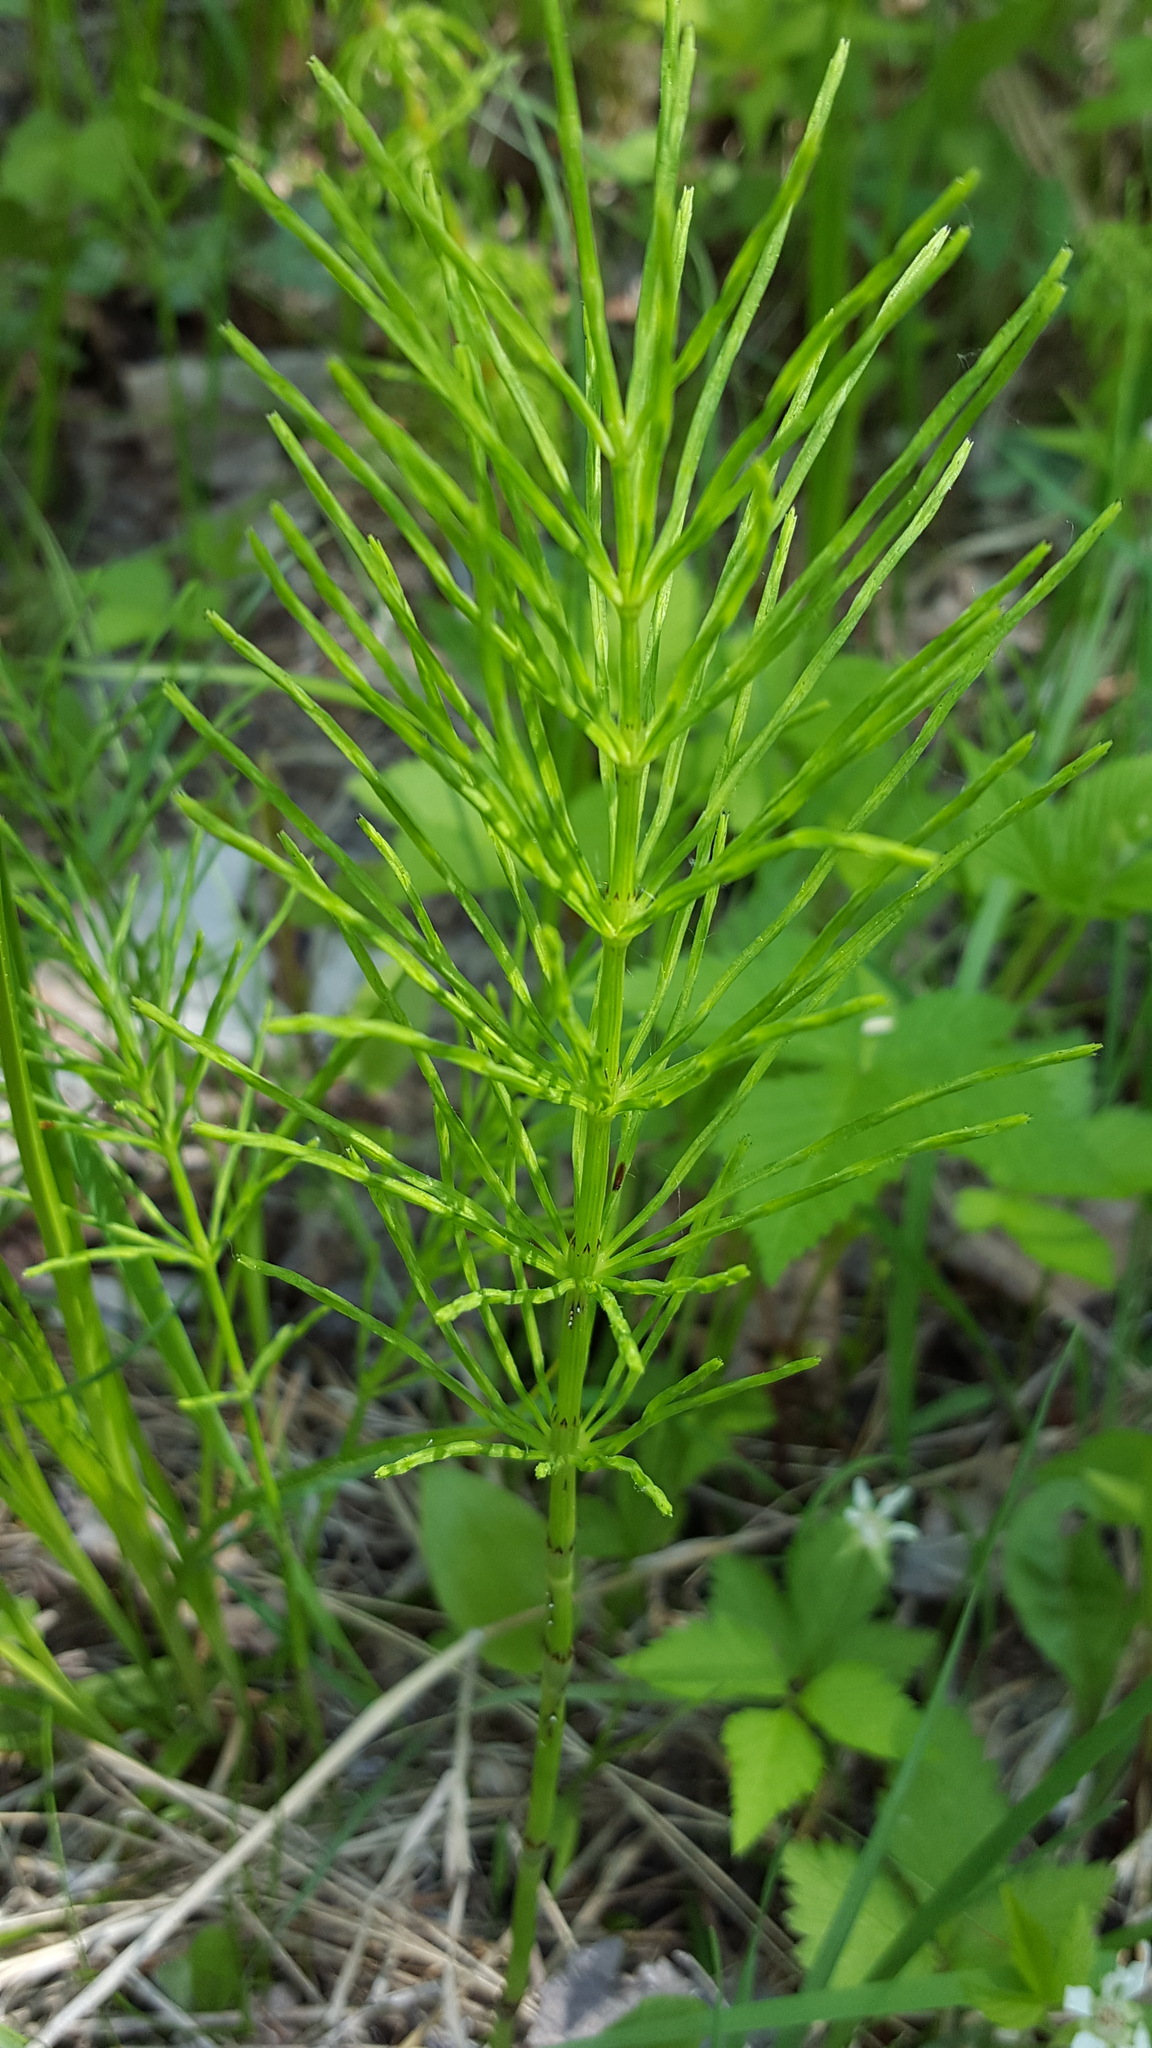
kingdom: Plantae
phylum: Tracheophyta
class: Polypodiopsida
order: Equisetales
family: Equisetaceae
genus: Equisetum
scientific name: Equisetum arvense
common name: Field horsetail
